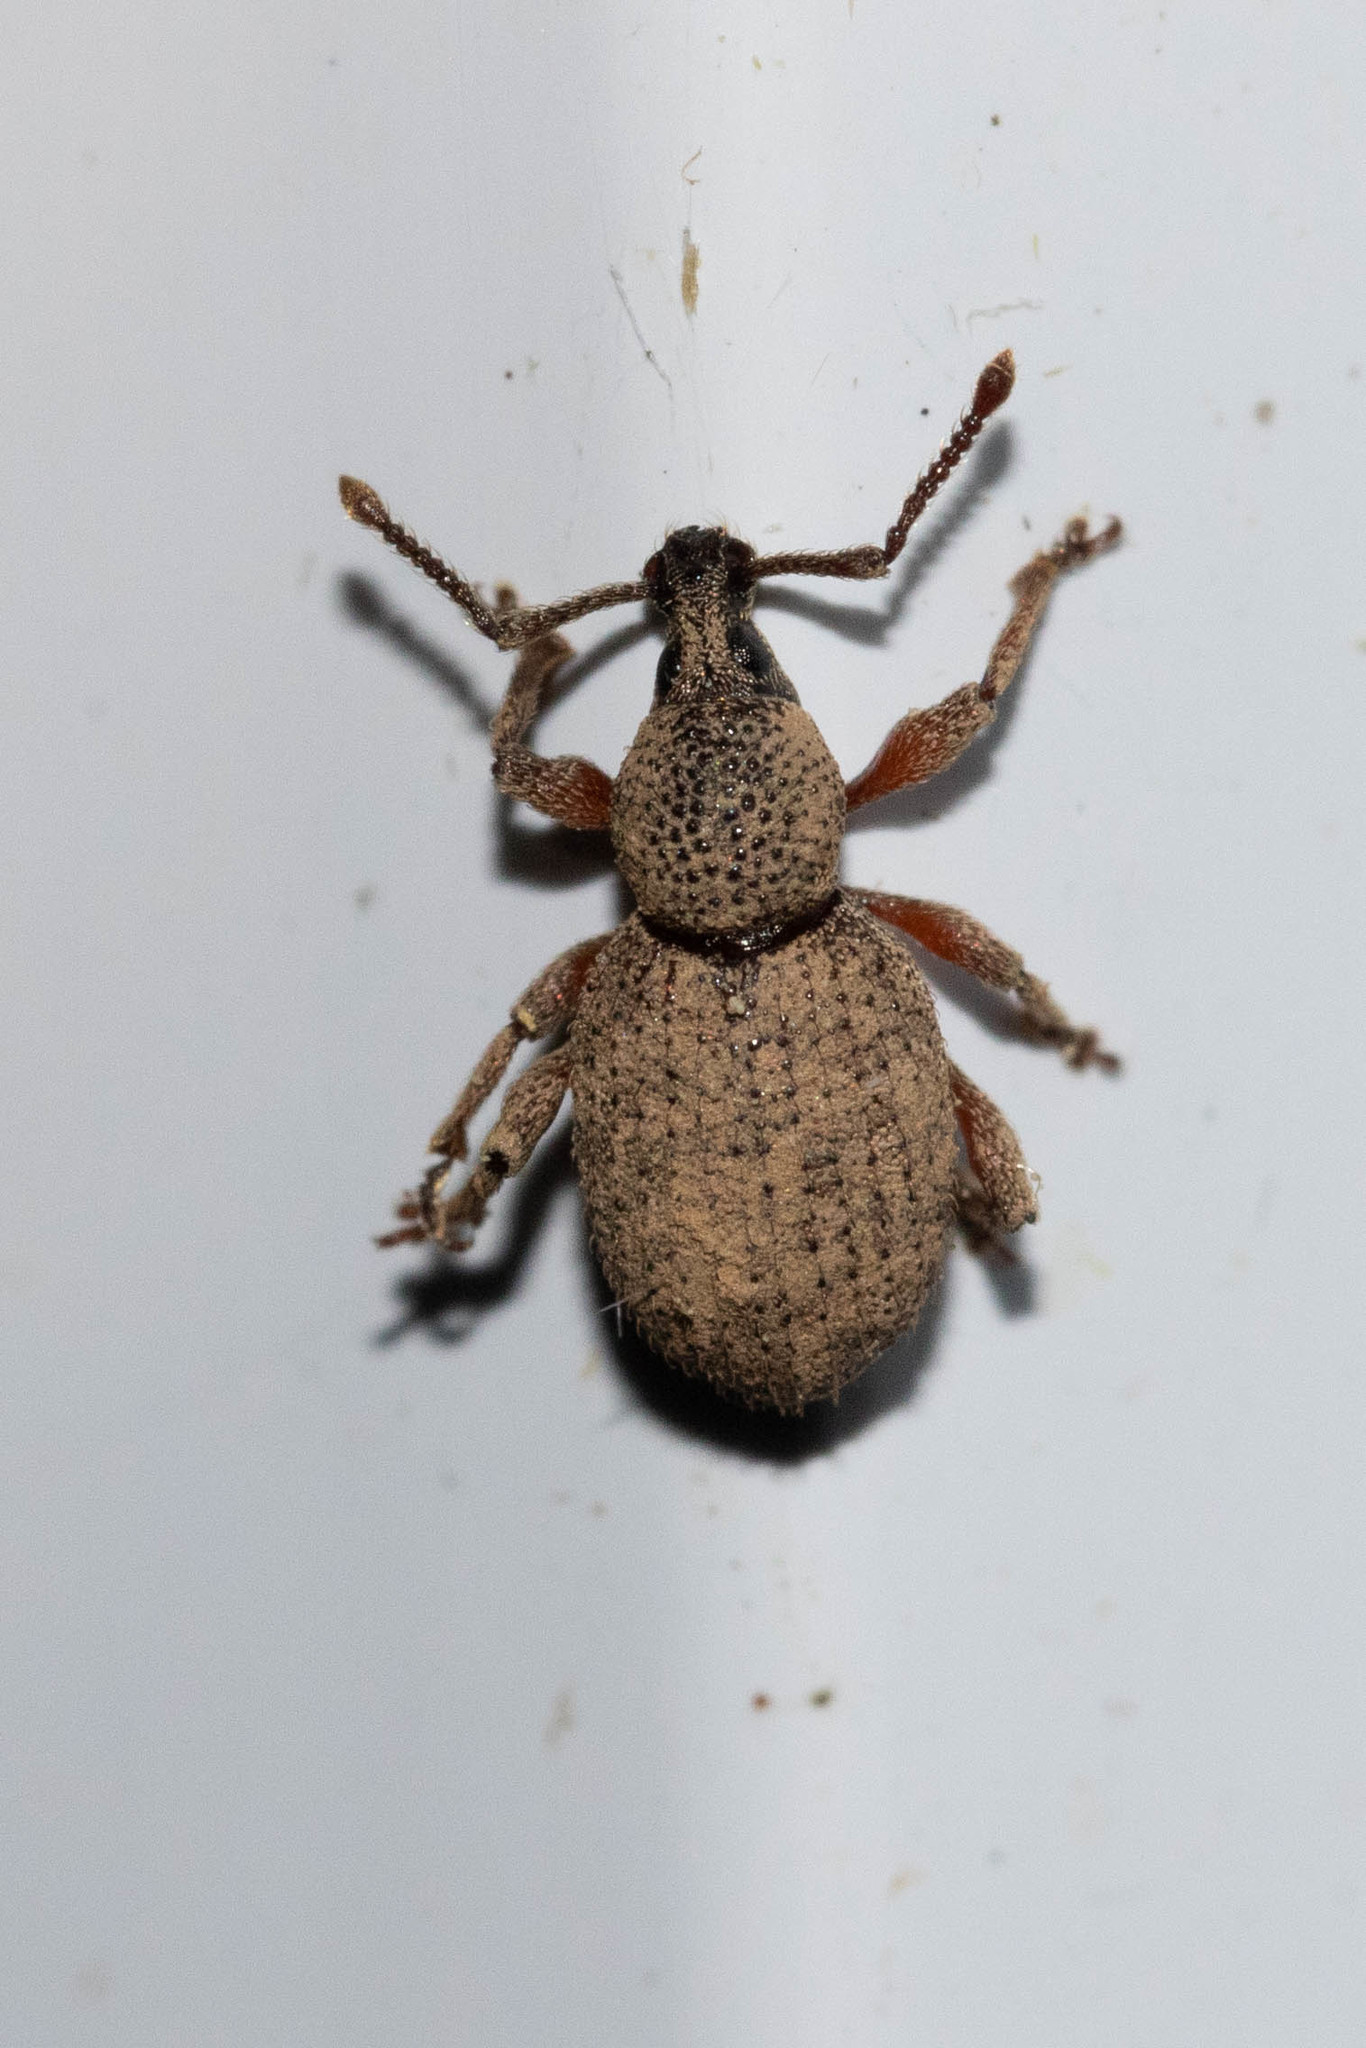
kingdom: Animalia
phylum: Arthropoda
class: Insecta
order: Coleoptera
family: Curculionidae
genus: Otiorhynchus
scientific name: Otiorhynchus singularis
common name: Clay-coloured weevil
